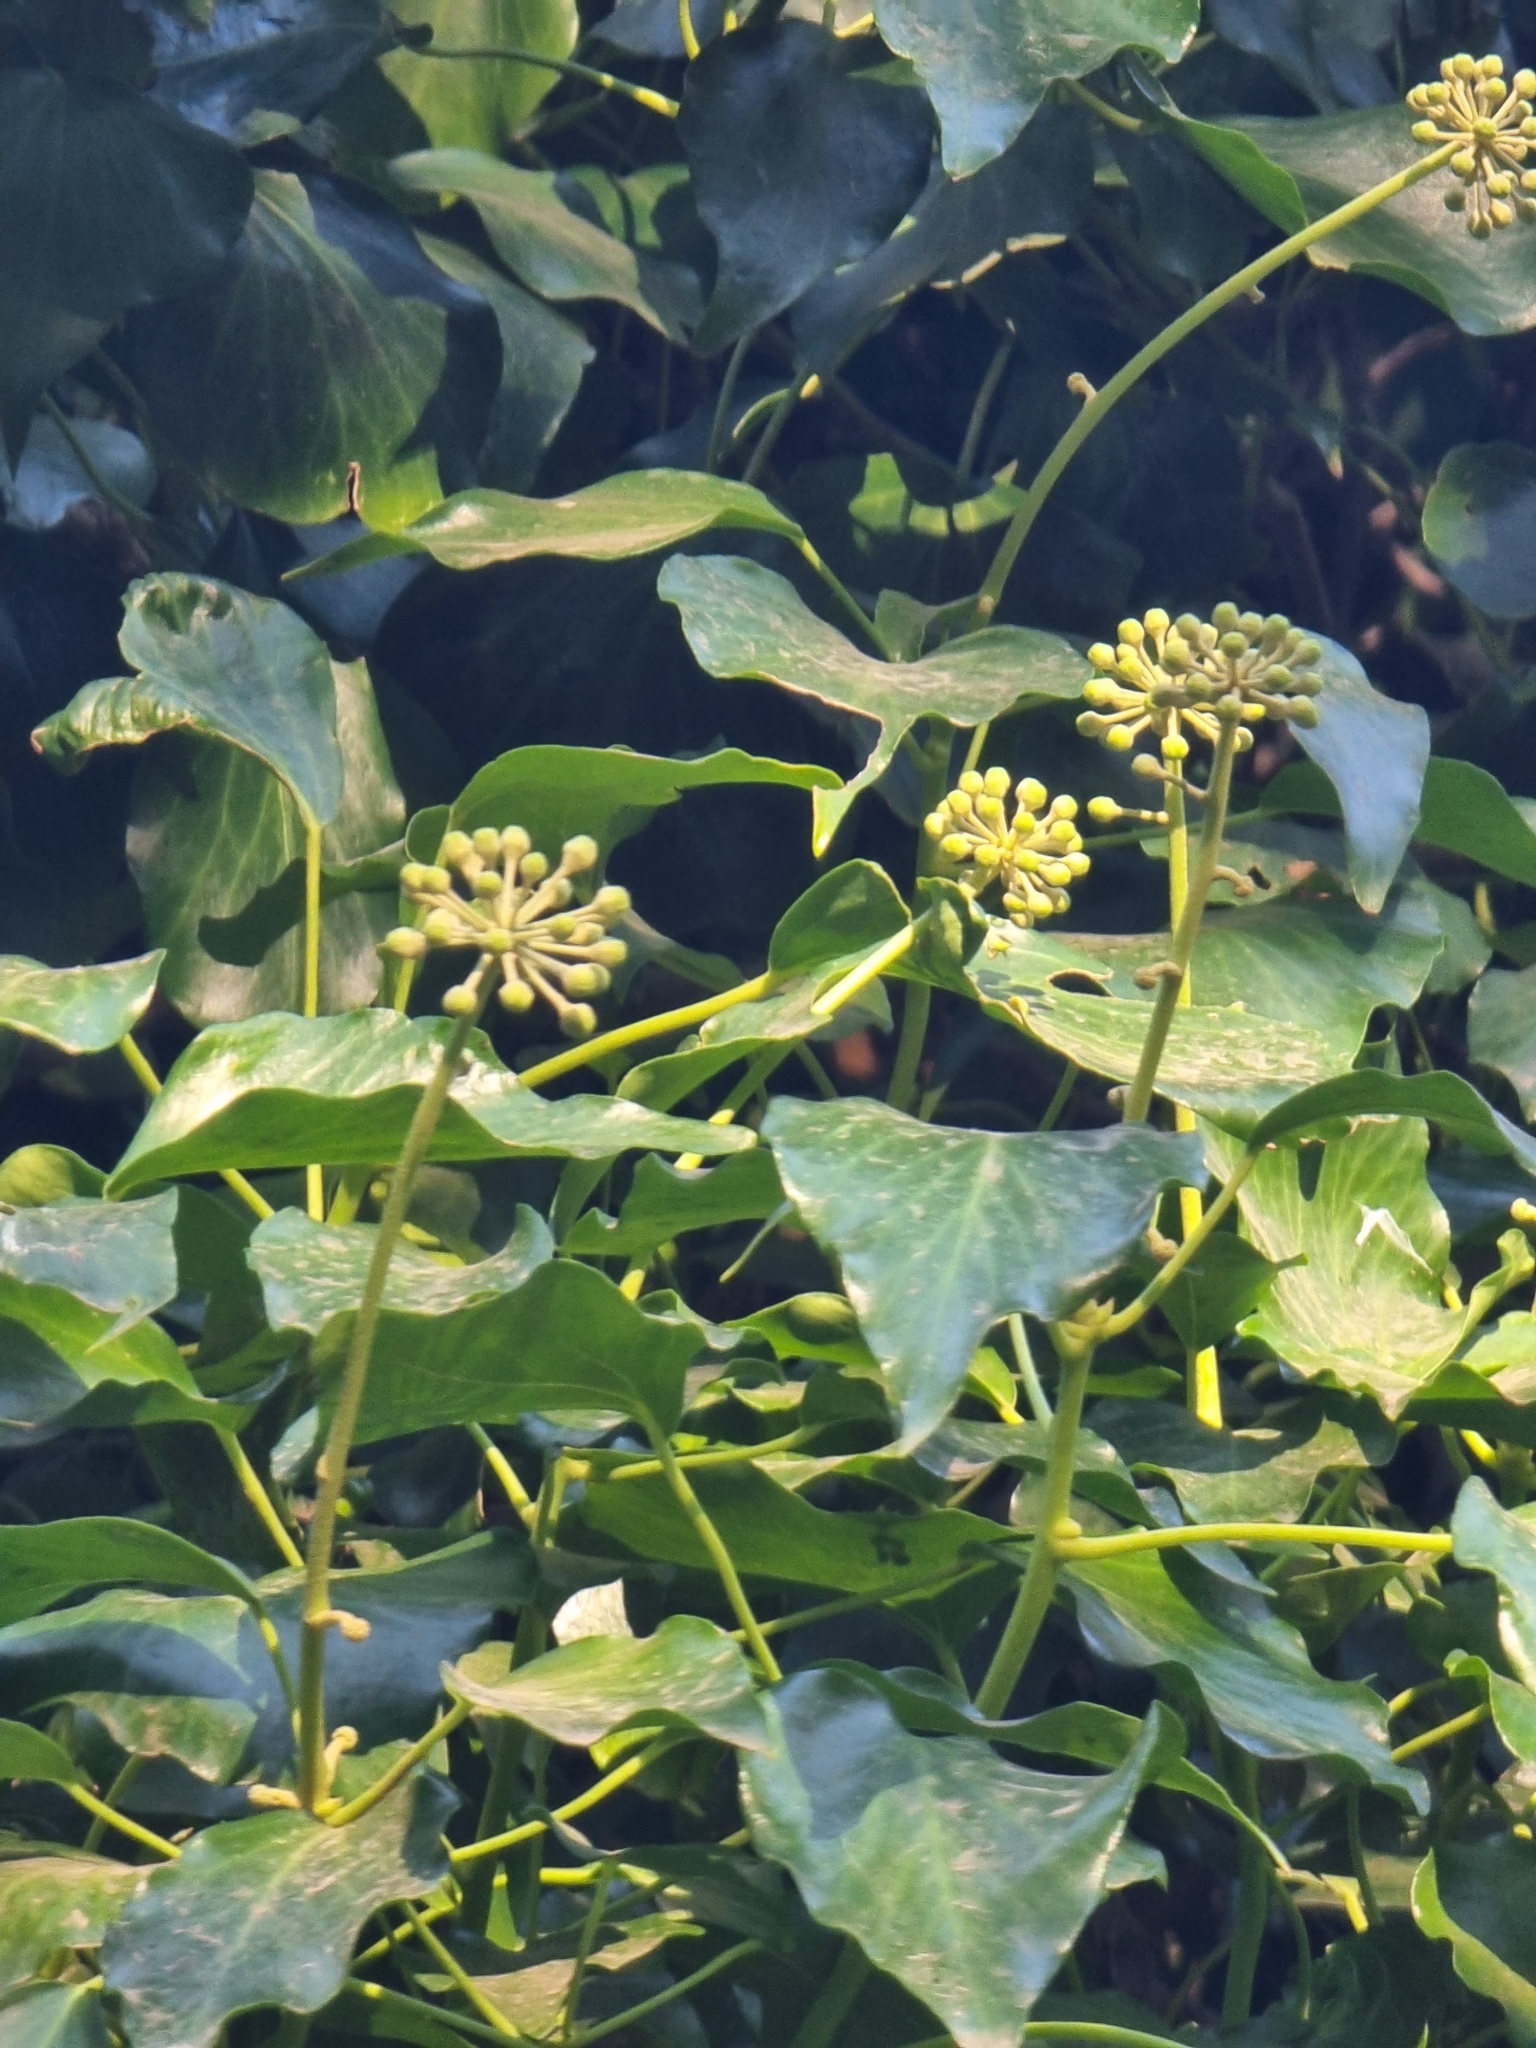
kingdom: Plantae
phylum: Tracheophyta
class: Magnoliopsida
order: Apiales
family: Araliaceae
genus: Hedera
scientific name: Hedera maderensis
